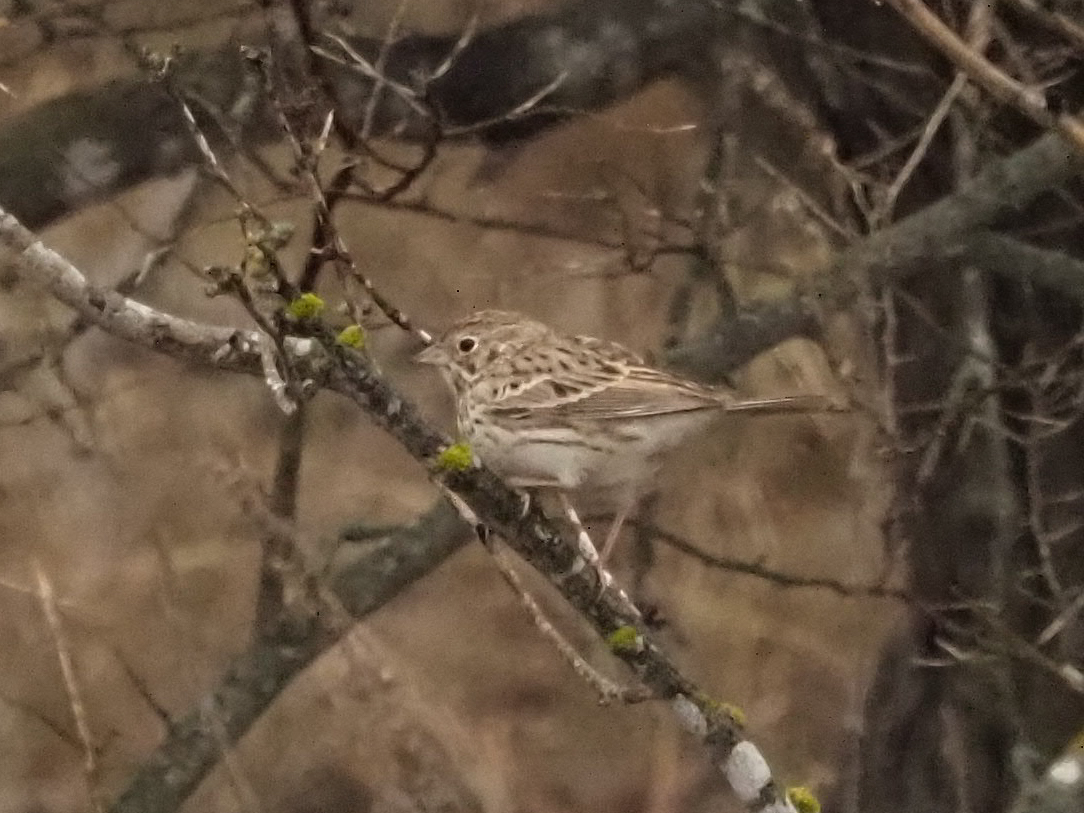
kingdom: Animalia
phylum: Chordata
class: Aves
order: Passeriformes
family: Passerellidae
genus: Pooecetes
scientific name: Pooecetes gramineus
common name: Vesper sparrow
